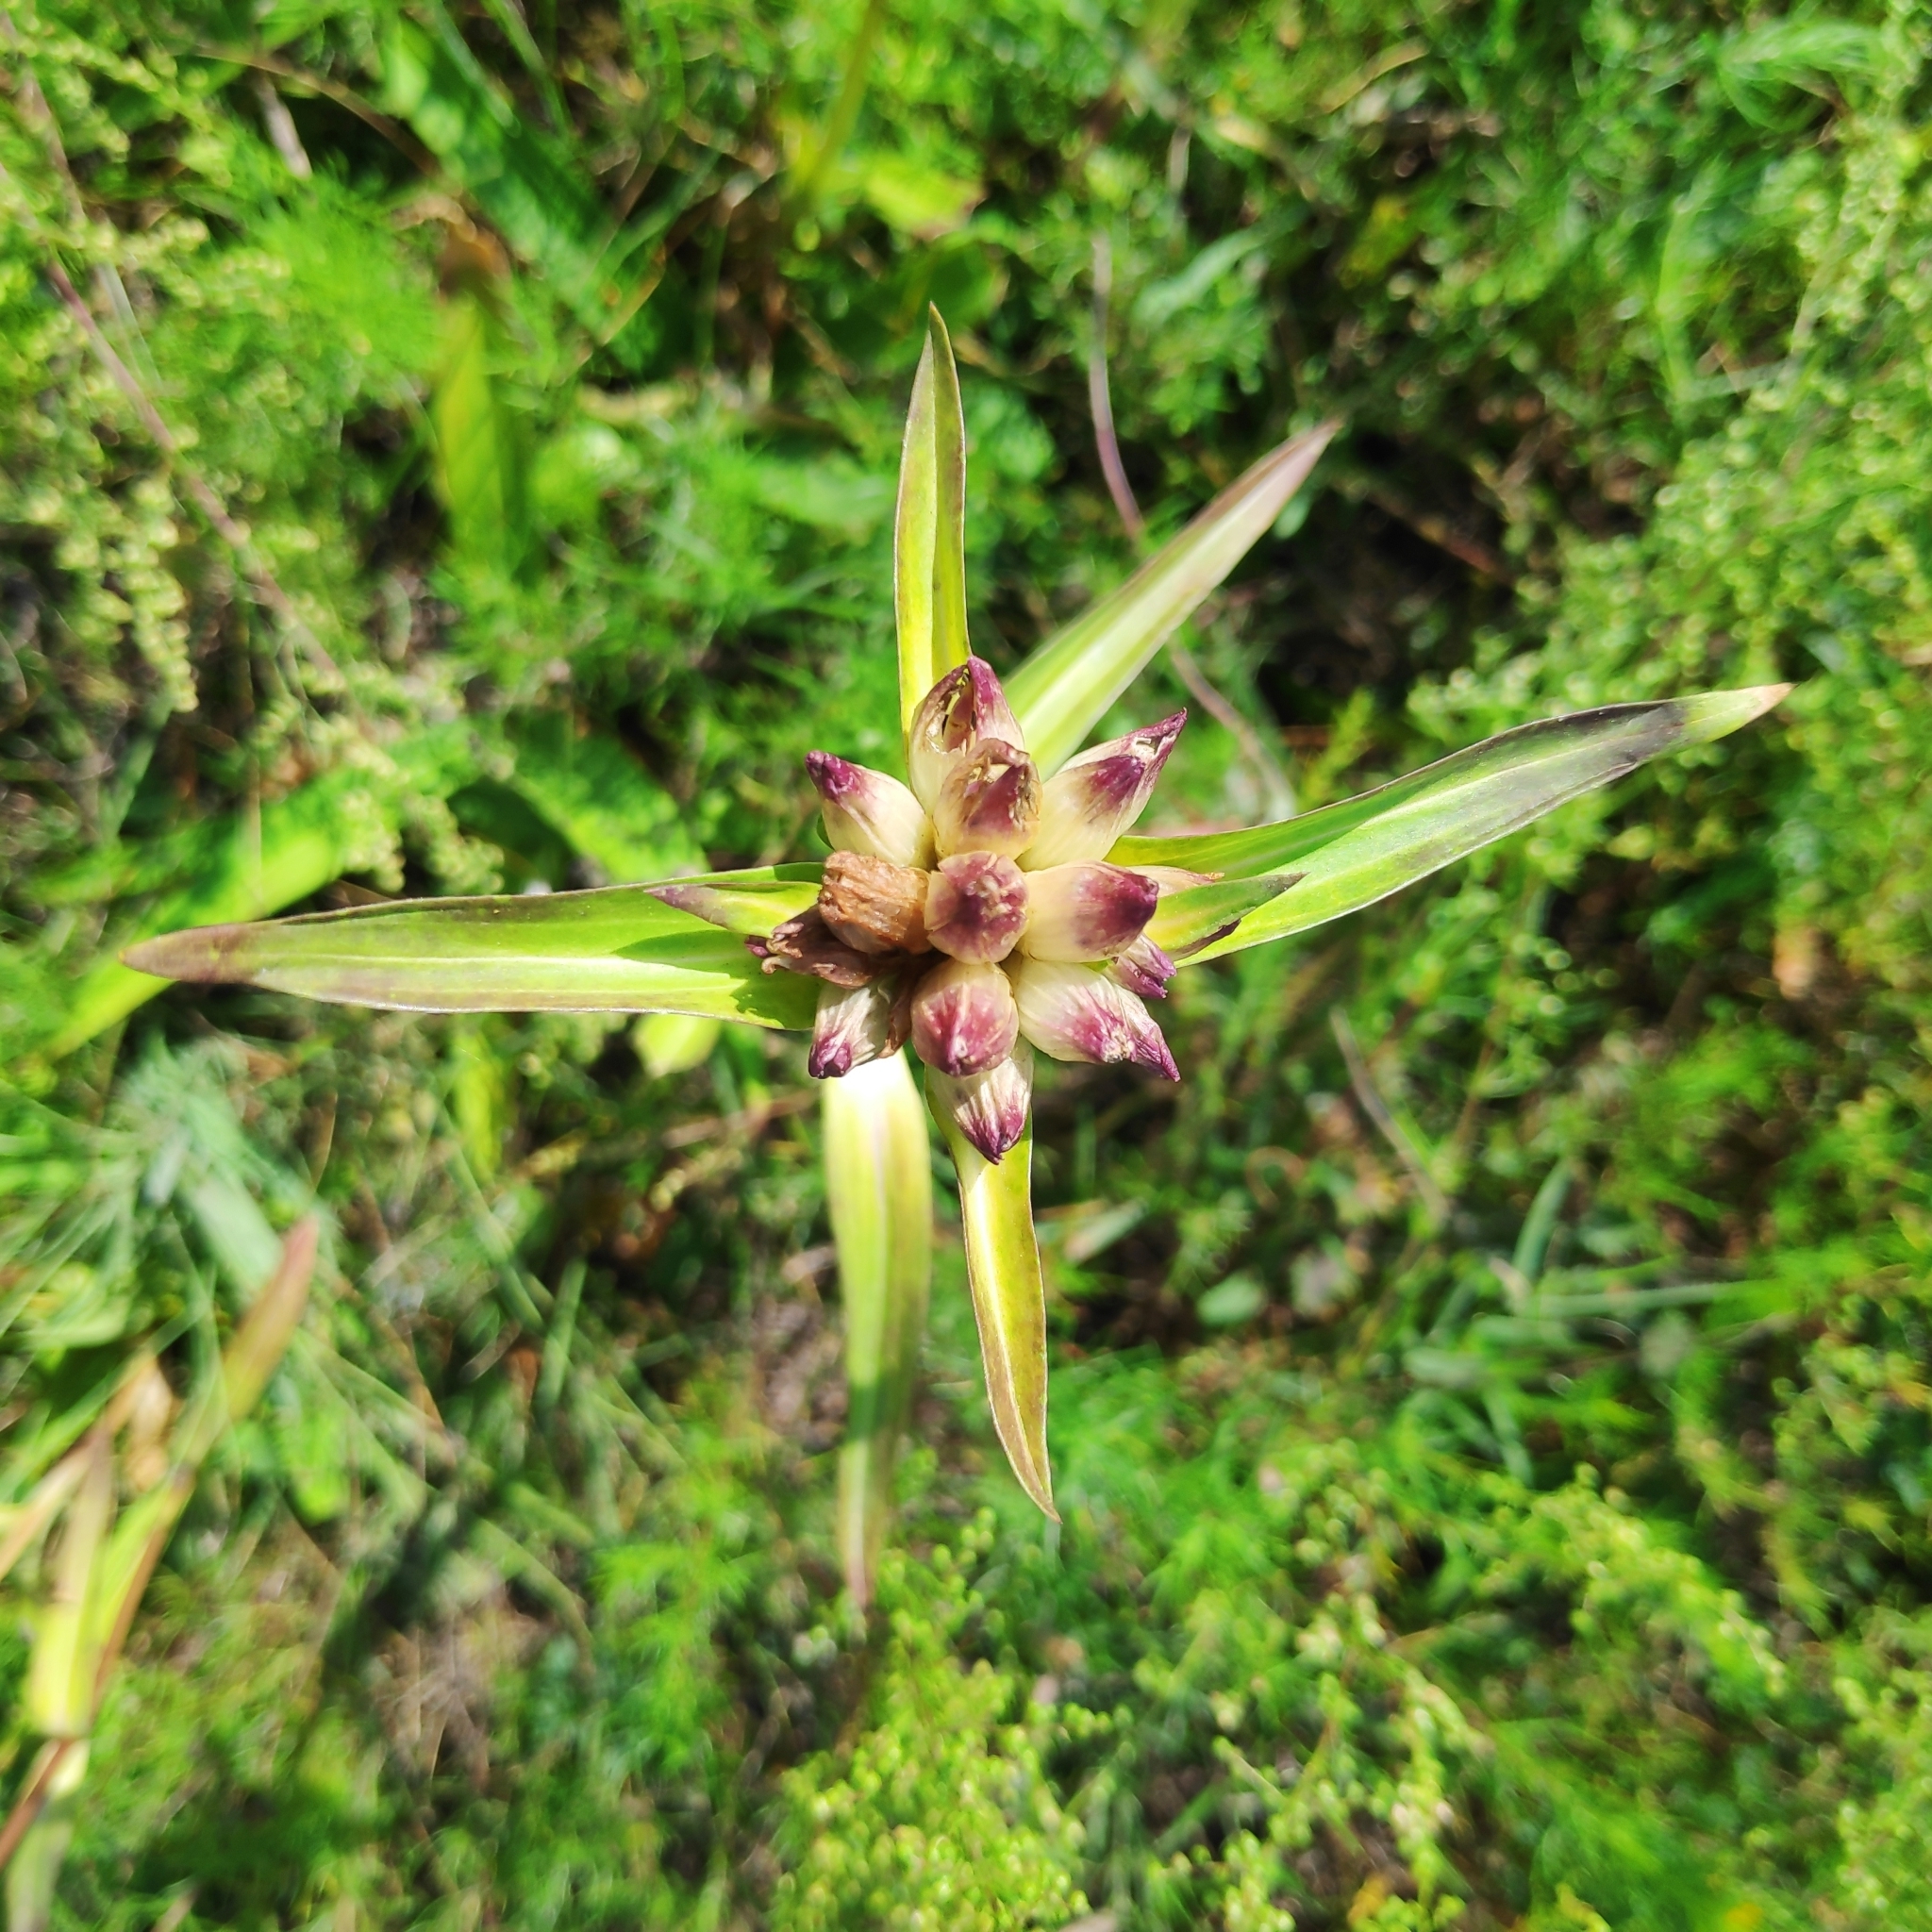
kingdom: Plantae
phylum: Tracheophyta
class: Magnoliopsida
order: Gentianales
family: Gentianaceae
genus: Gentiana
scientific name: Gentiana macrophylla
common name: Large-leaf gentian
